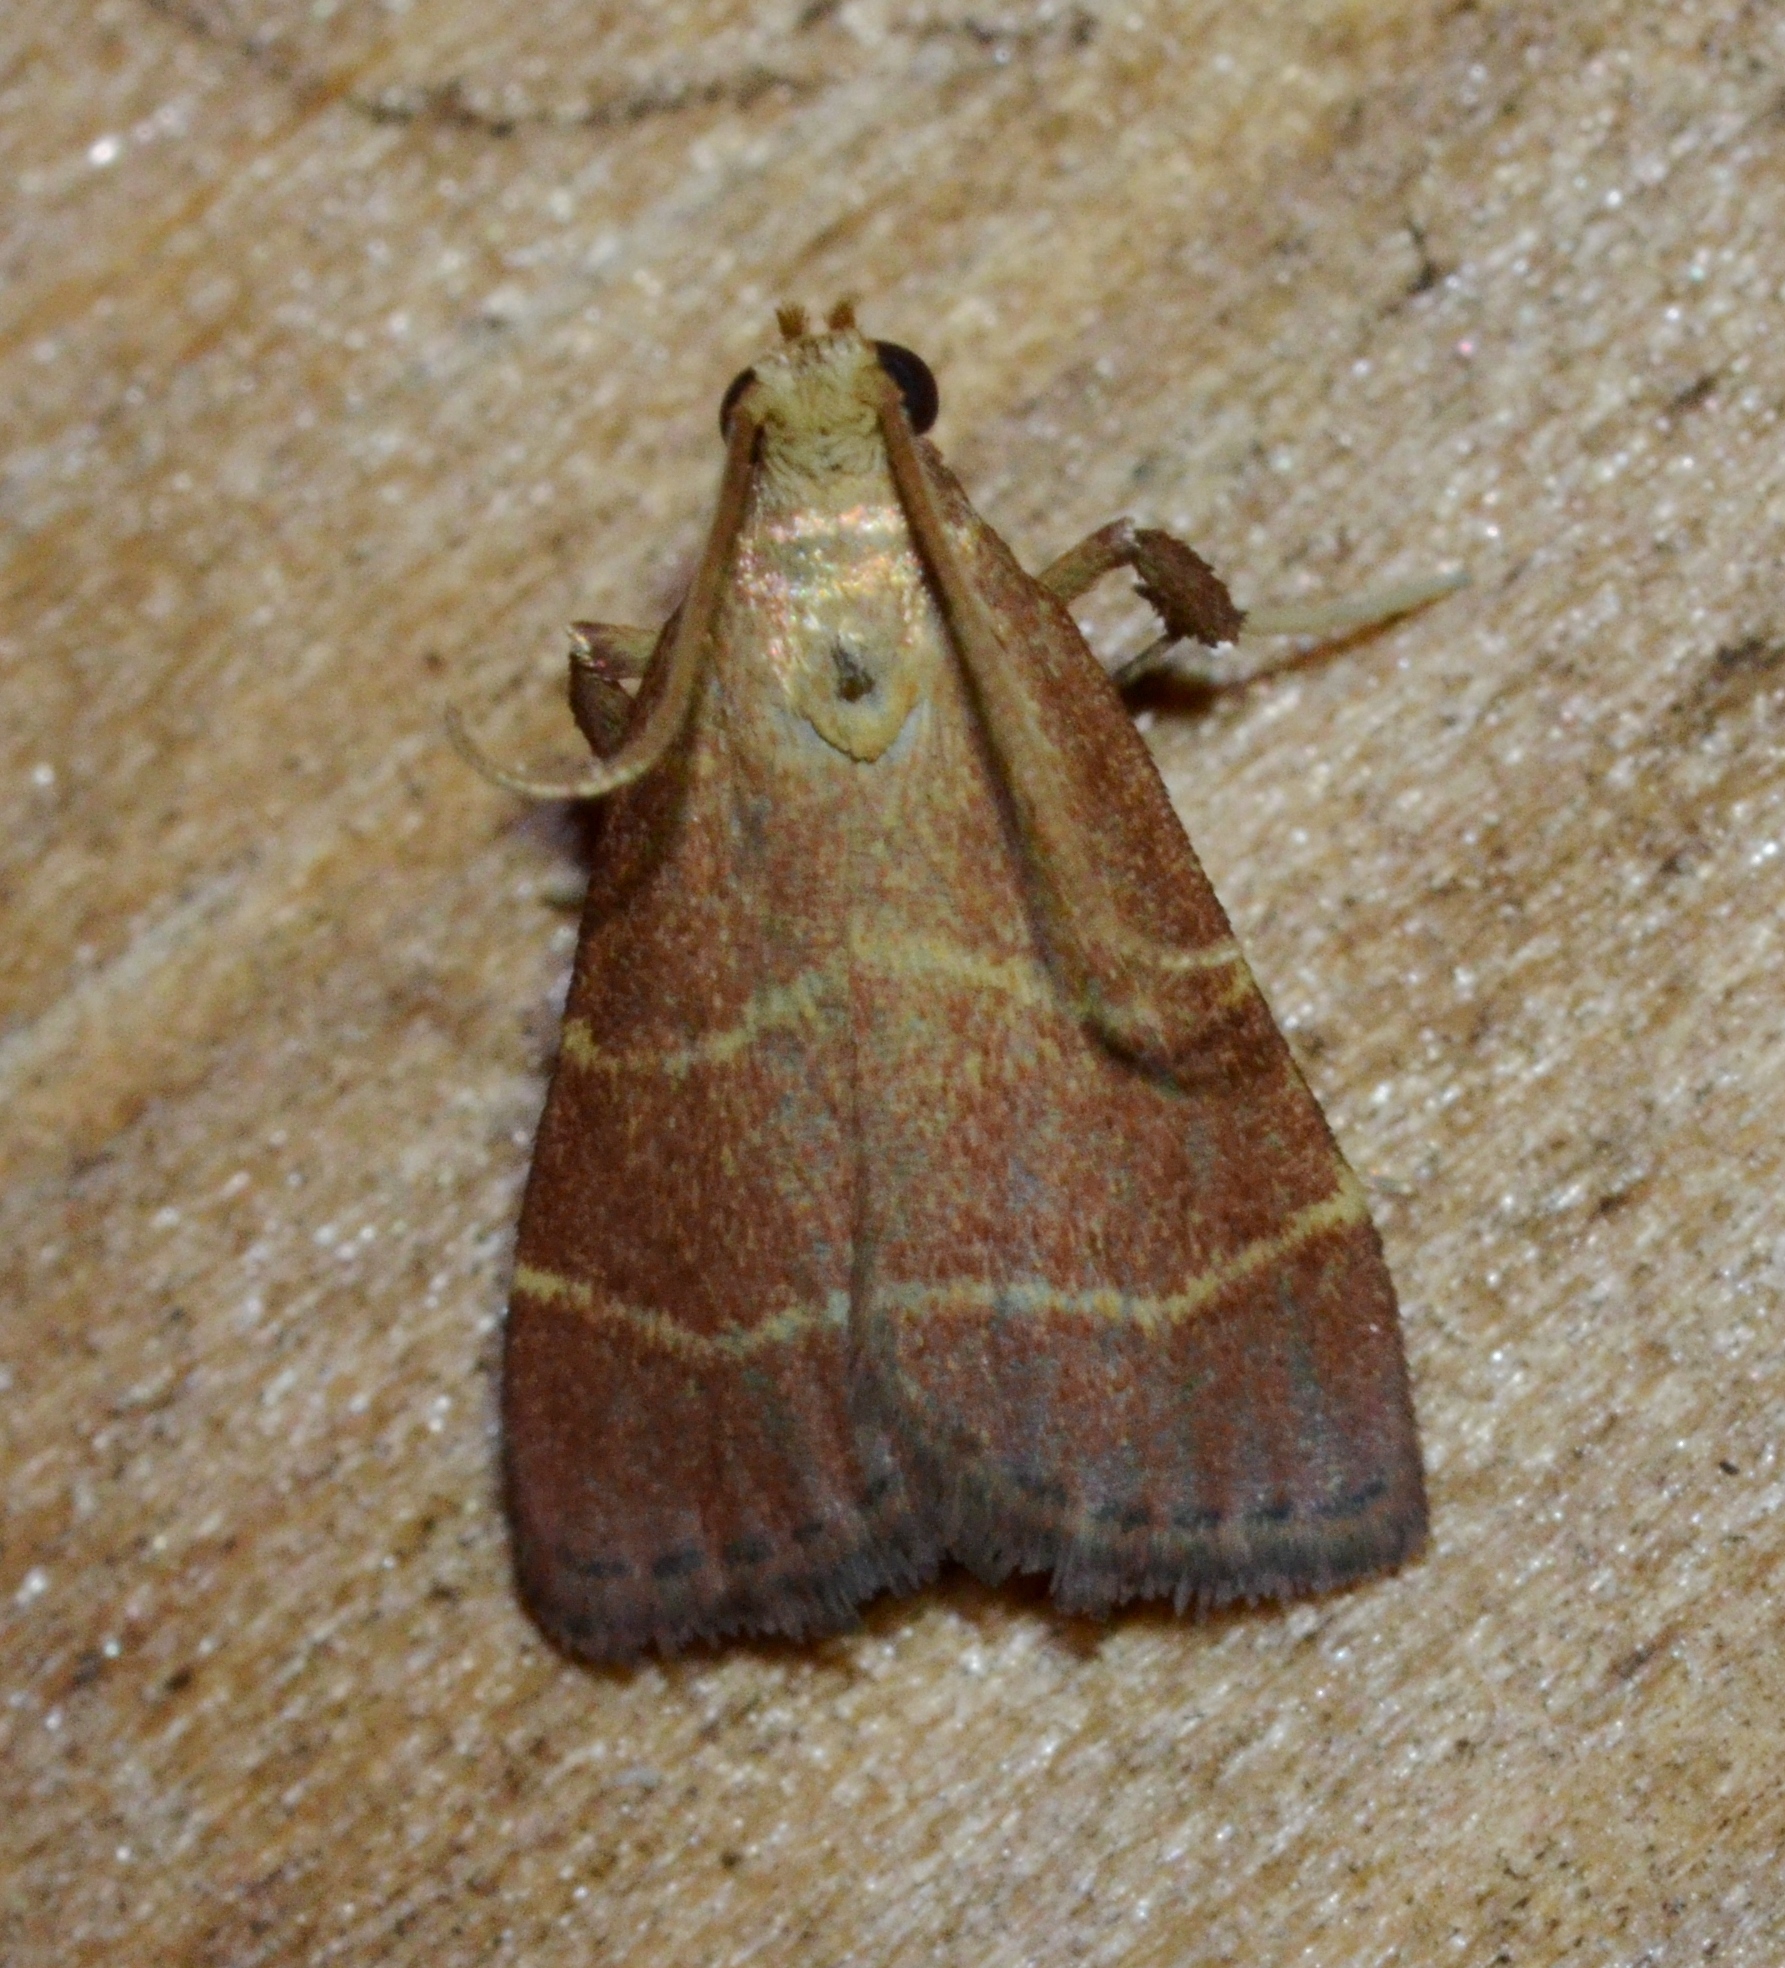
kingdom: Animalia
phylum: Arthropoda
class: Insecta
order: Lepidoptera
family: Pyralidae
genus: Arta
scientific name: Arta statalis
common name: Posturing arta moth
